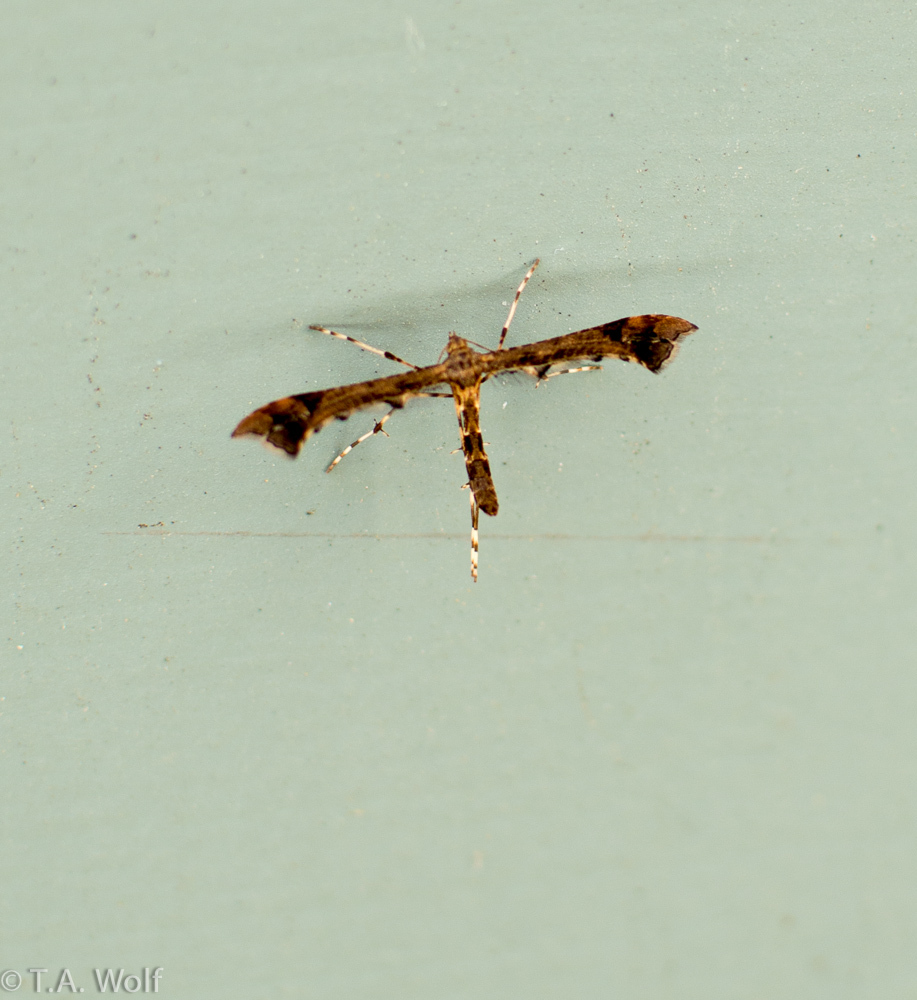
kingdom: Animalia
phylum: Arthropoda
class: Insecta
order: Lepidoptera
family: Pterophoridae
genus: Amblyptilia
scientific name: Amblyptilia pica
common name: Geranium plume moth
